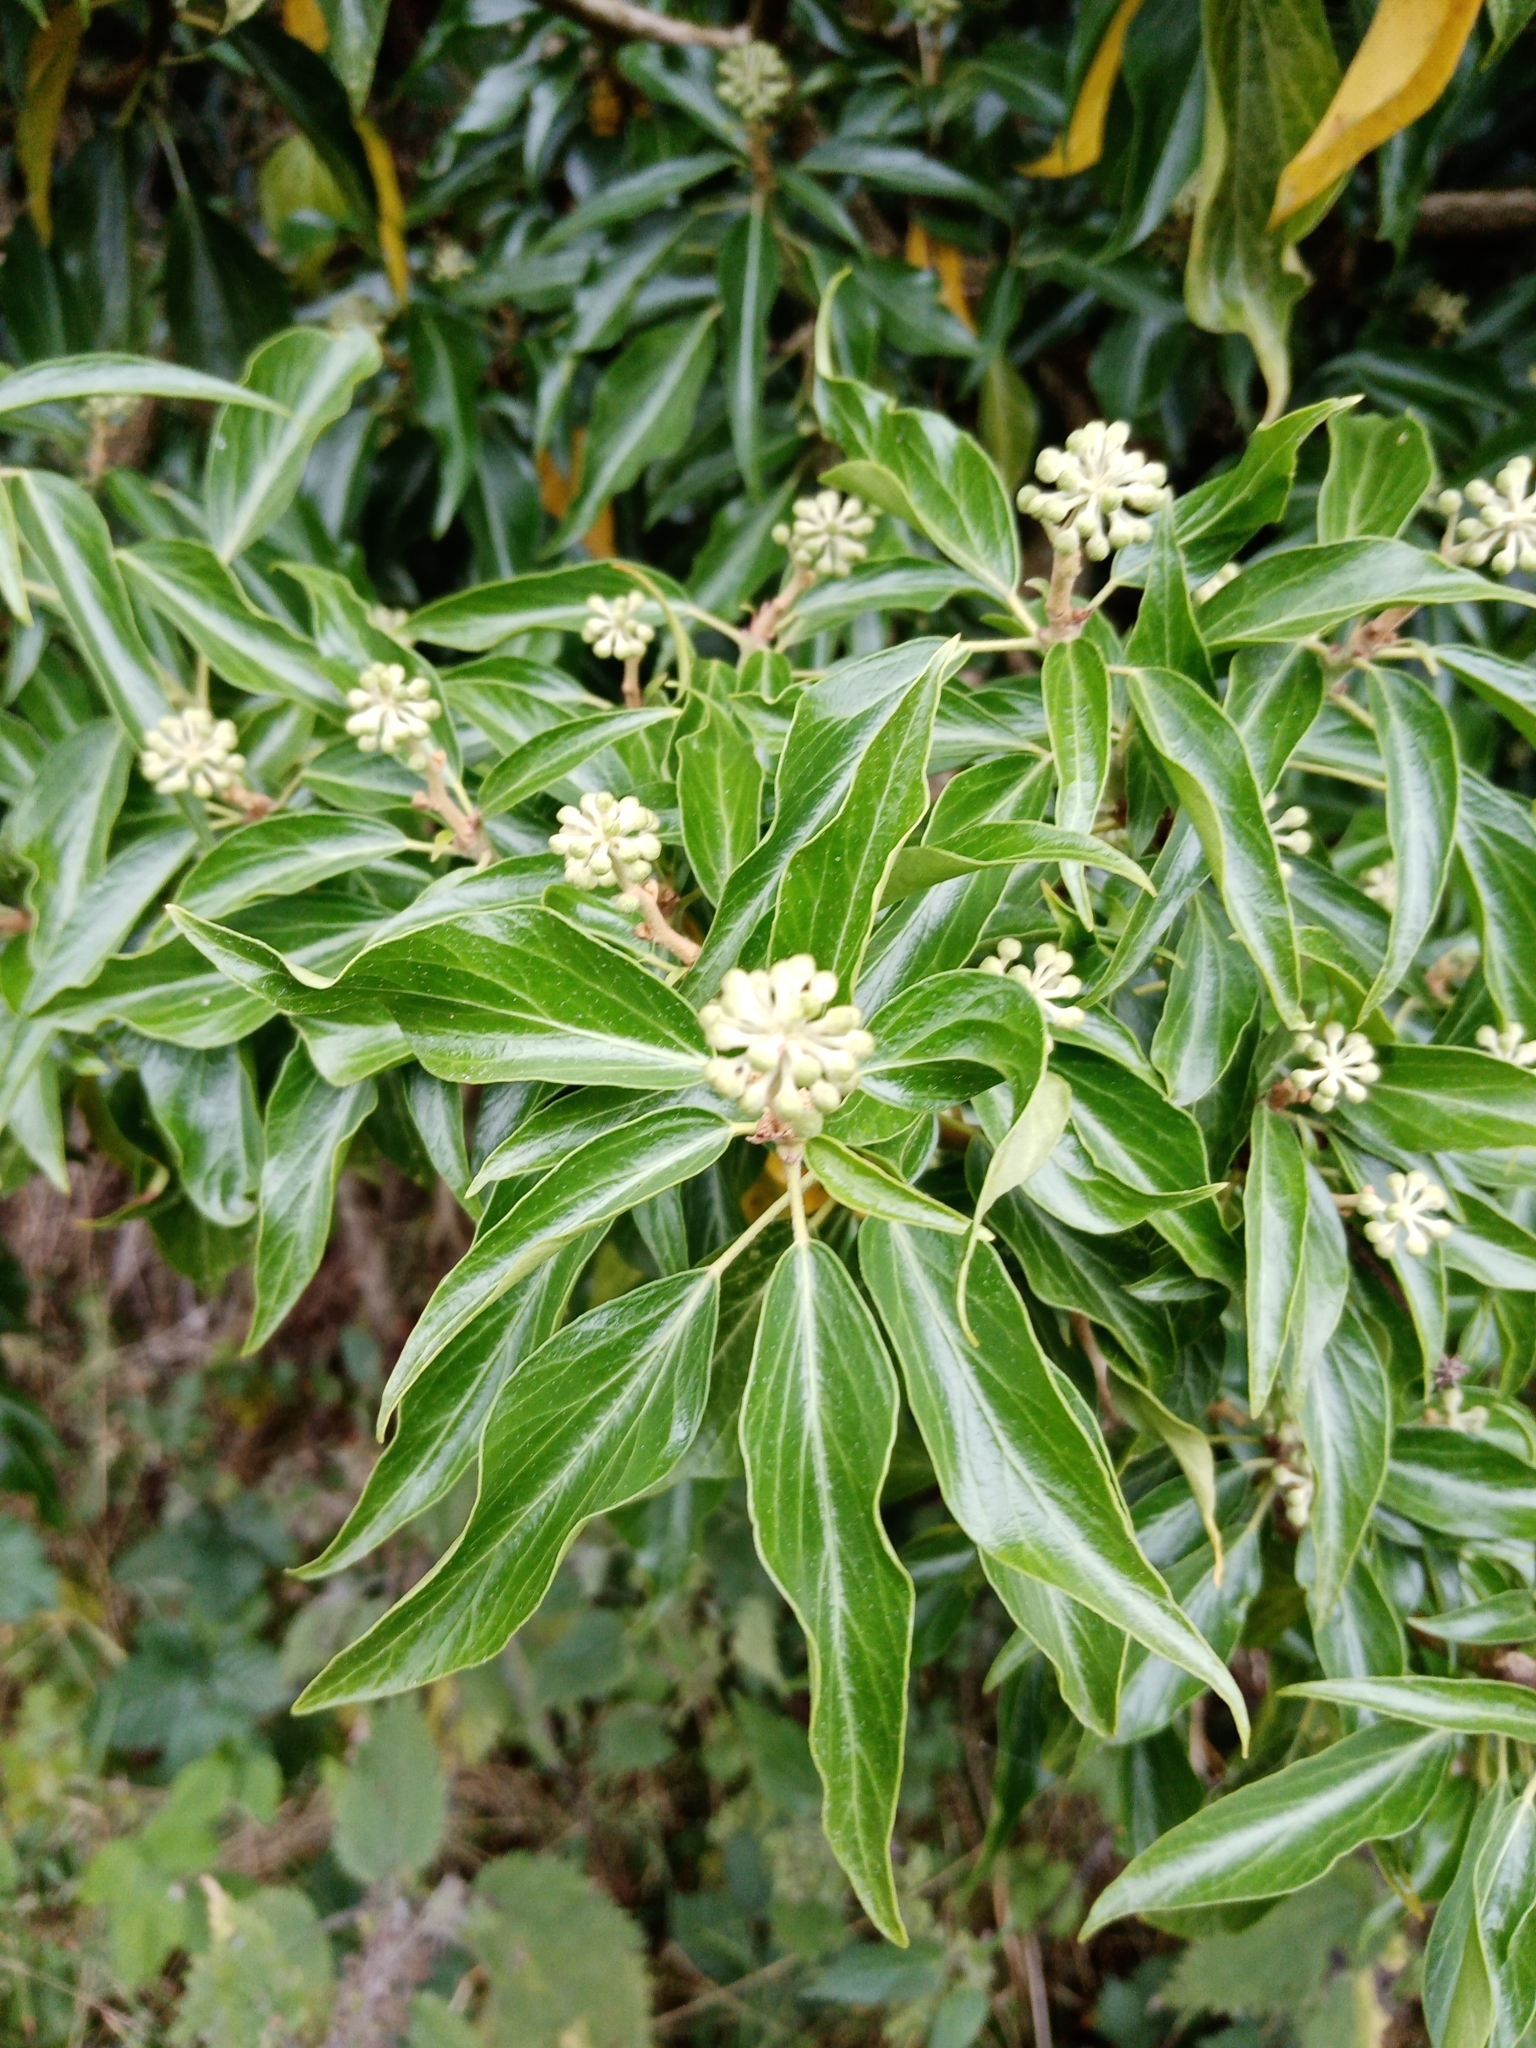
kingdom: Plantae
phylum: Tracheophyta
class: Magnoliopsida
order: Apiales
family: Araliaceae
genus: Hedera
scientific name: Hedera helix
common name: Ivy
